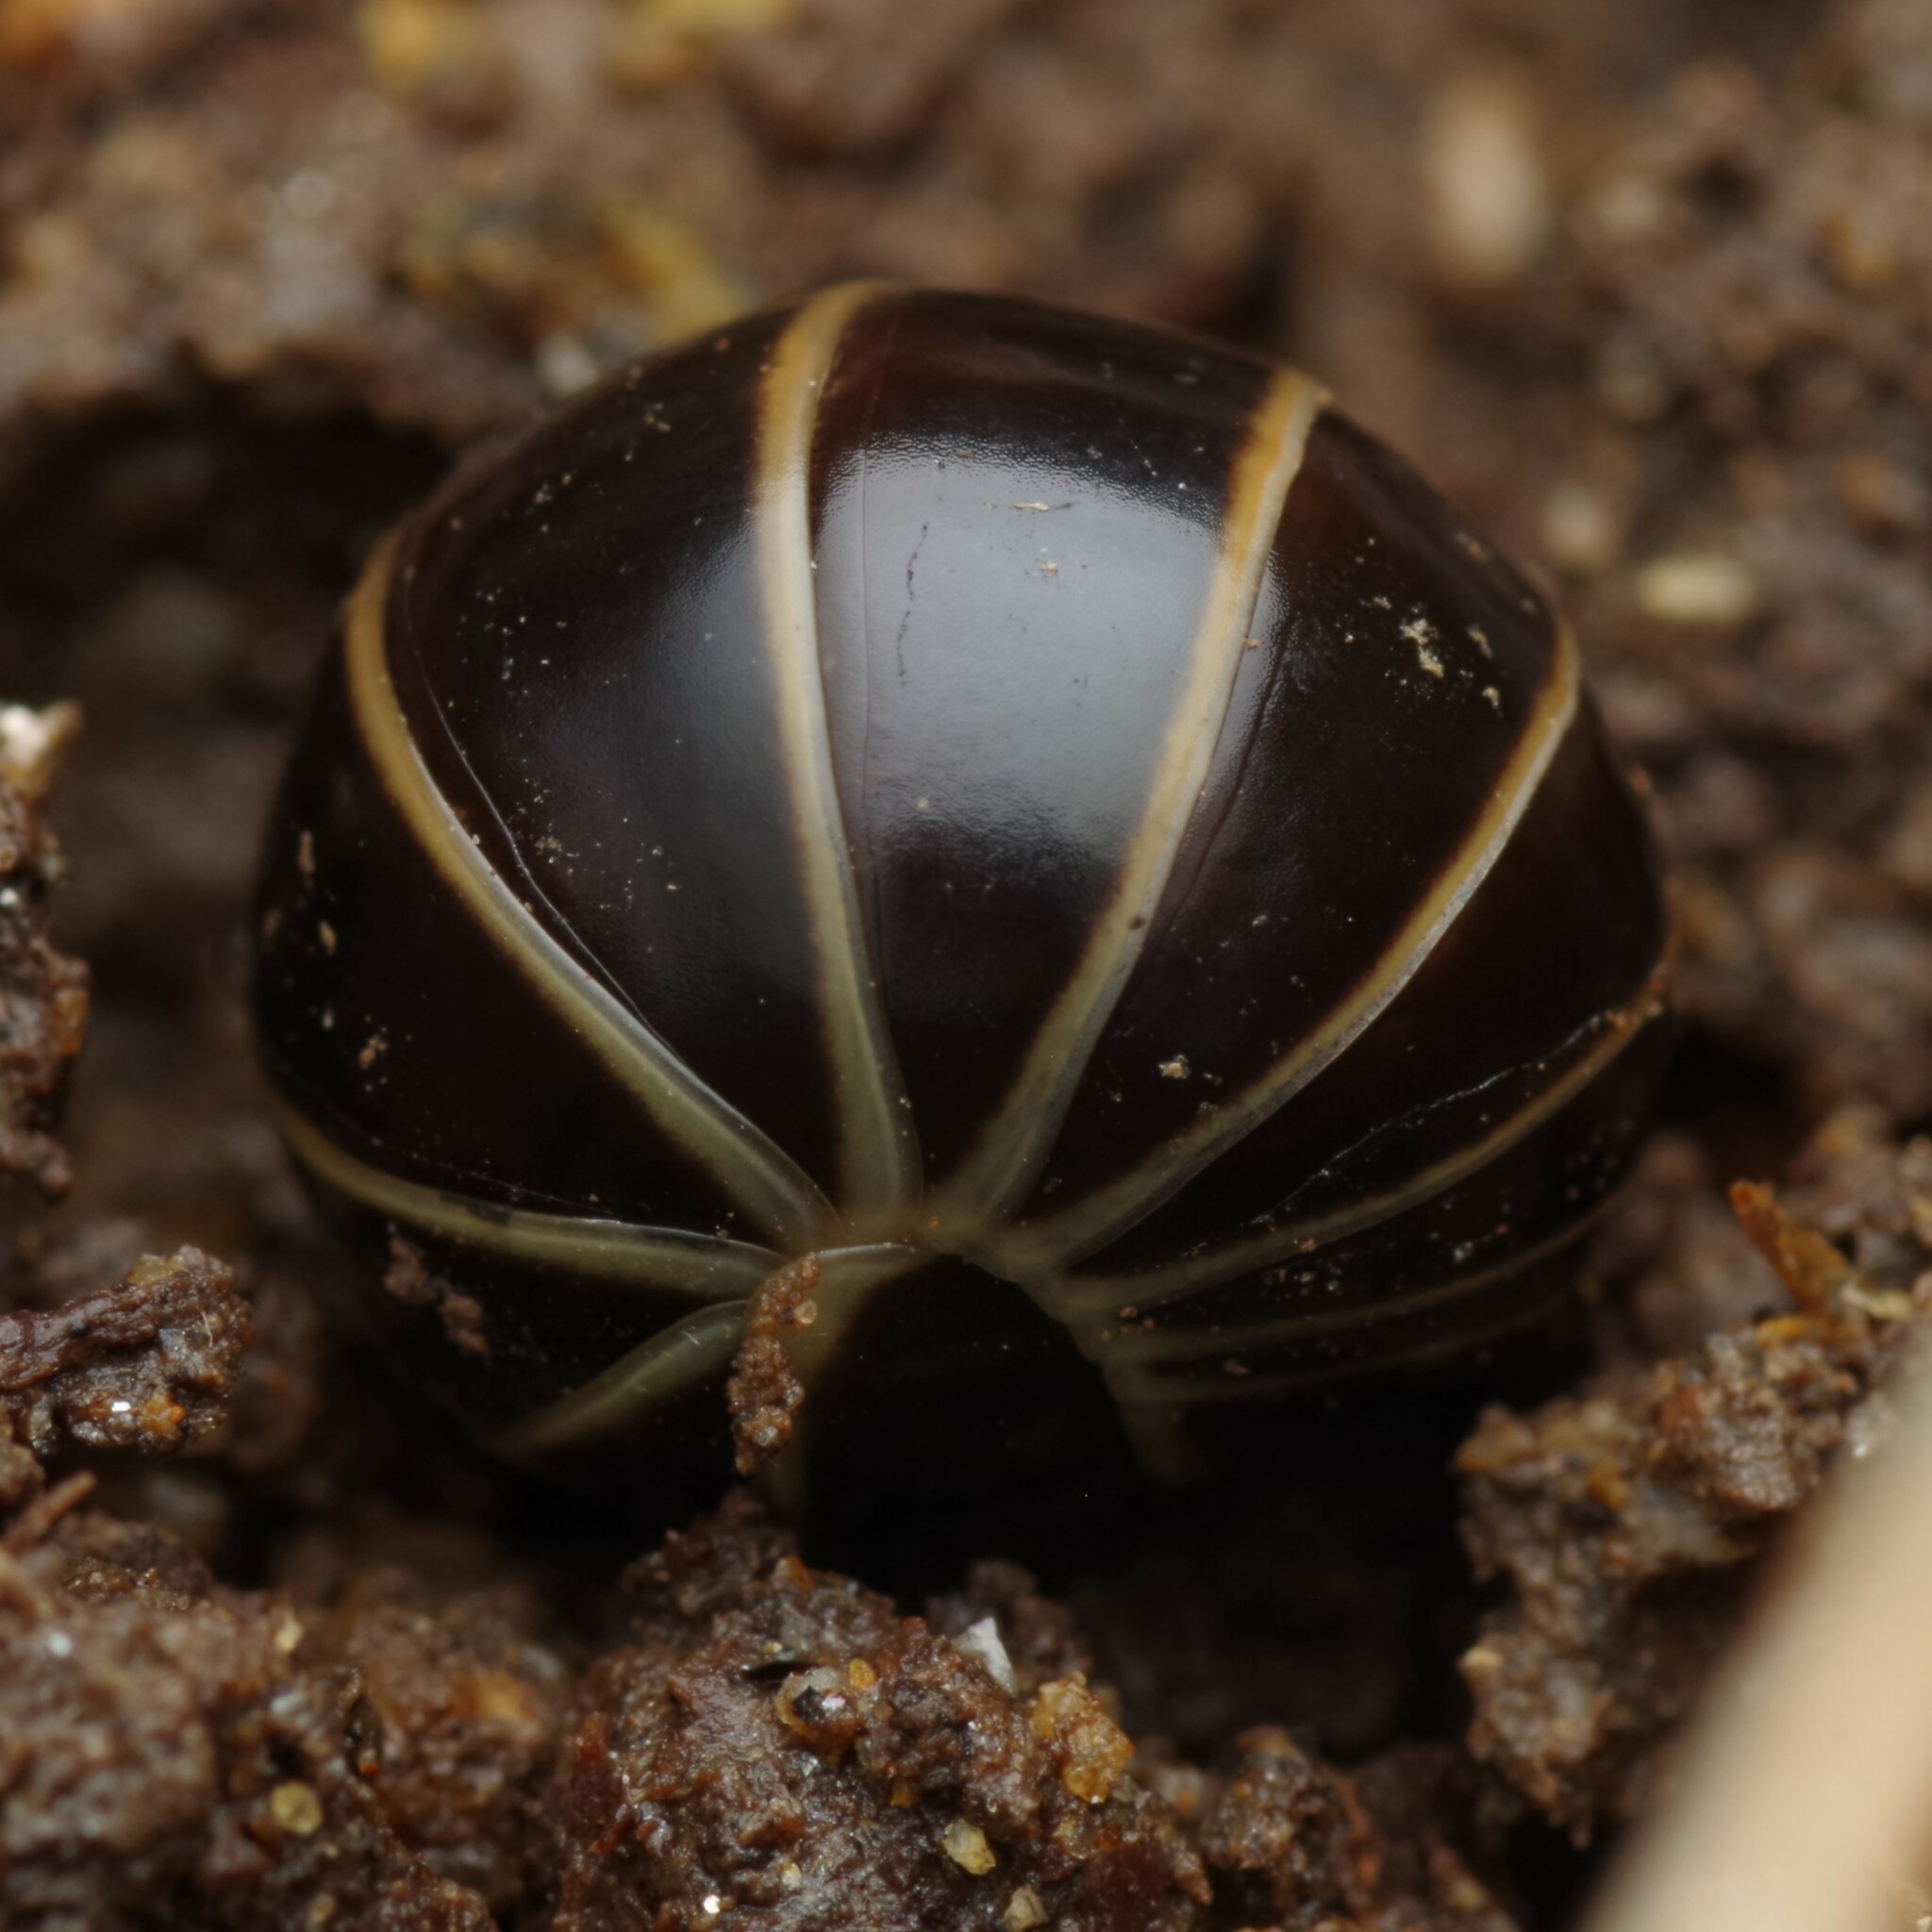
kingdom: Animalia
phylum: Arthropoda
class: Diplopoda
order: Glomerida
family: Glomeridae
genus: Glomeris
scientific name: Glomeris marginata
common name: Bordered pill millipede
